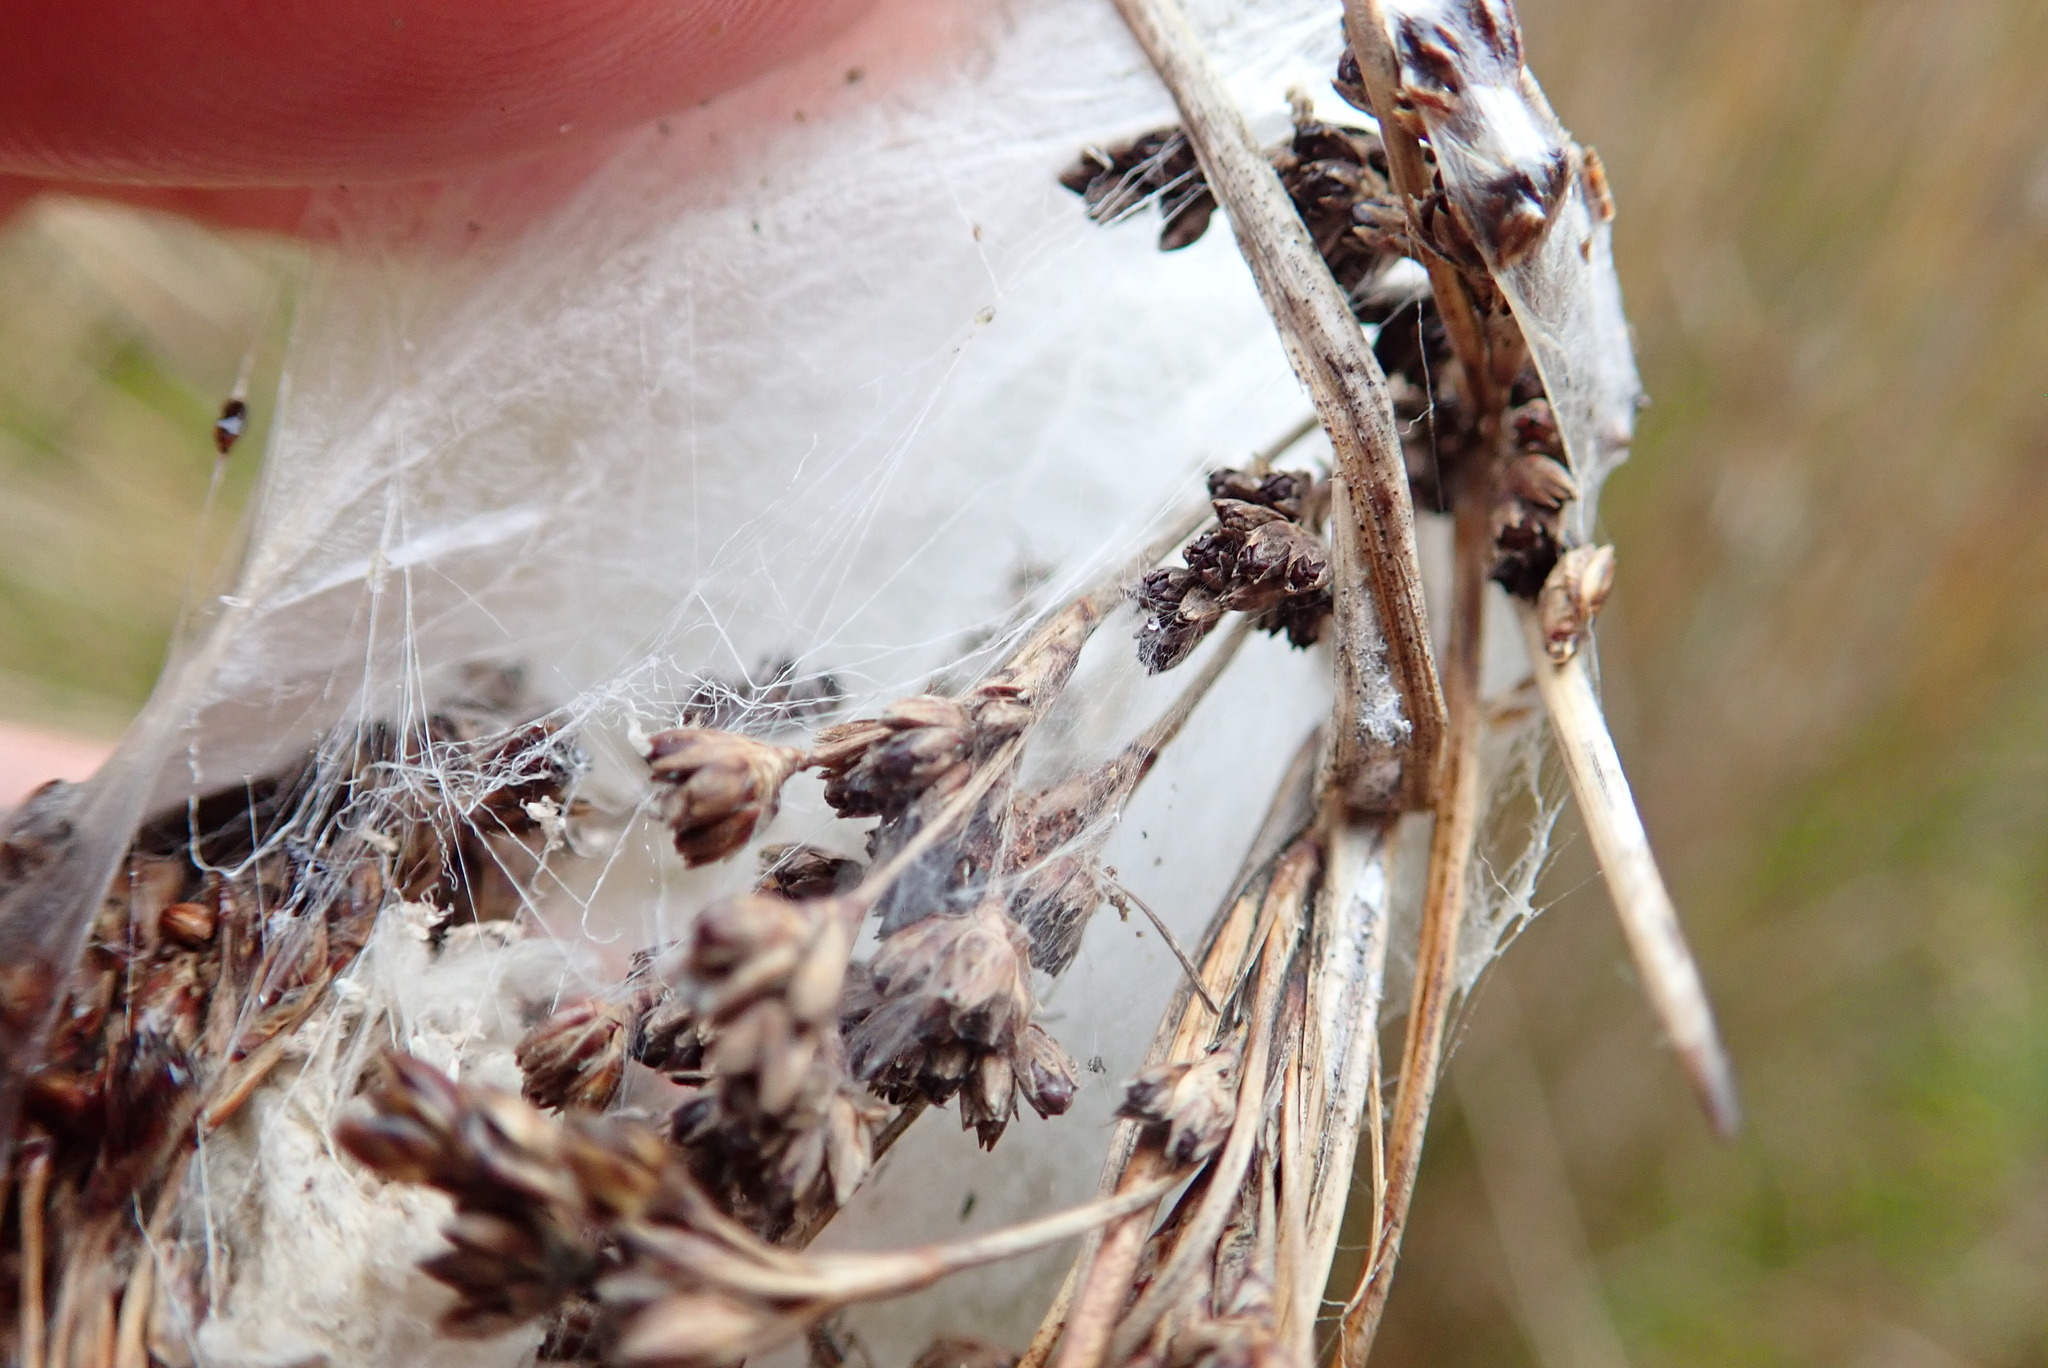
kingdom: Animalia
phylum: Arthropoda
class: Arachnida
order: Araneae
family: Pisauridae
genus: Dolomedes
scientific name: Dolomedes minor
